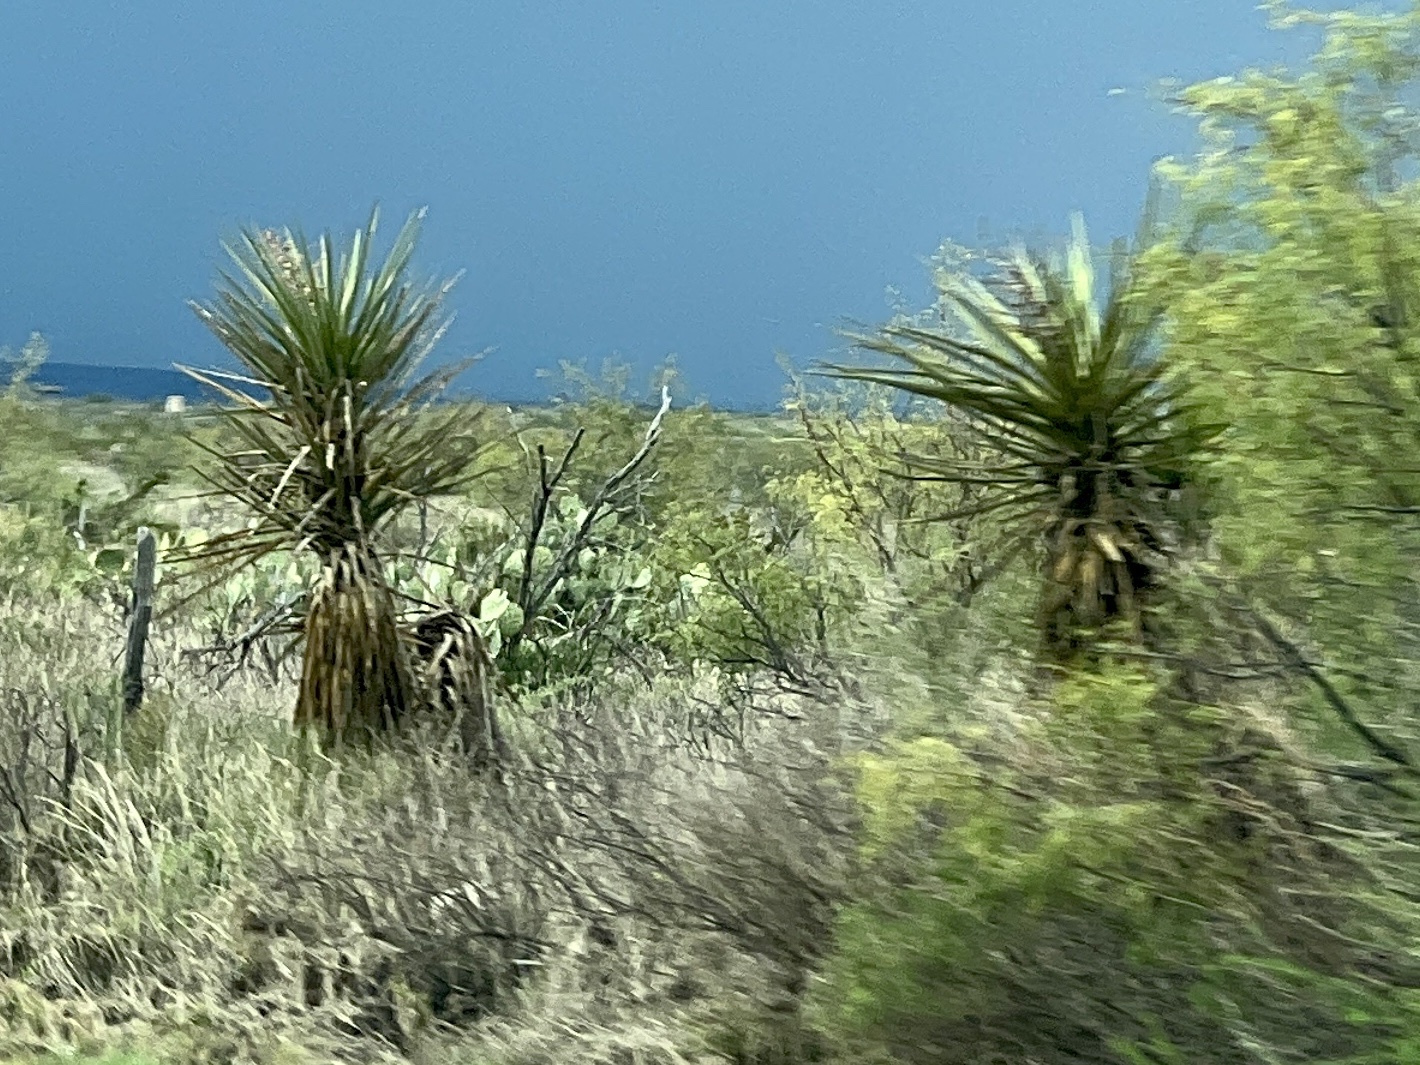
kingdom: Plantae
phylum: Tracheophyta
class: Liliopsida
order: Asparagales
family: Asparagaceae
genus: Yucca
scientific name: Yucca treculiana
